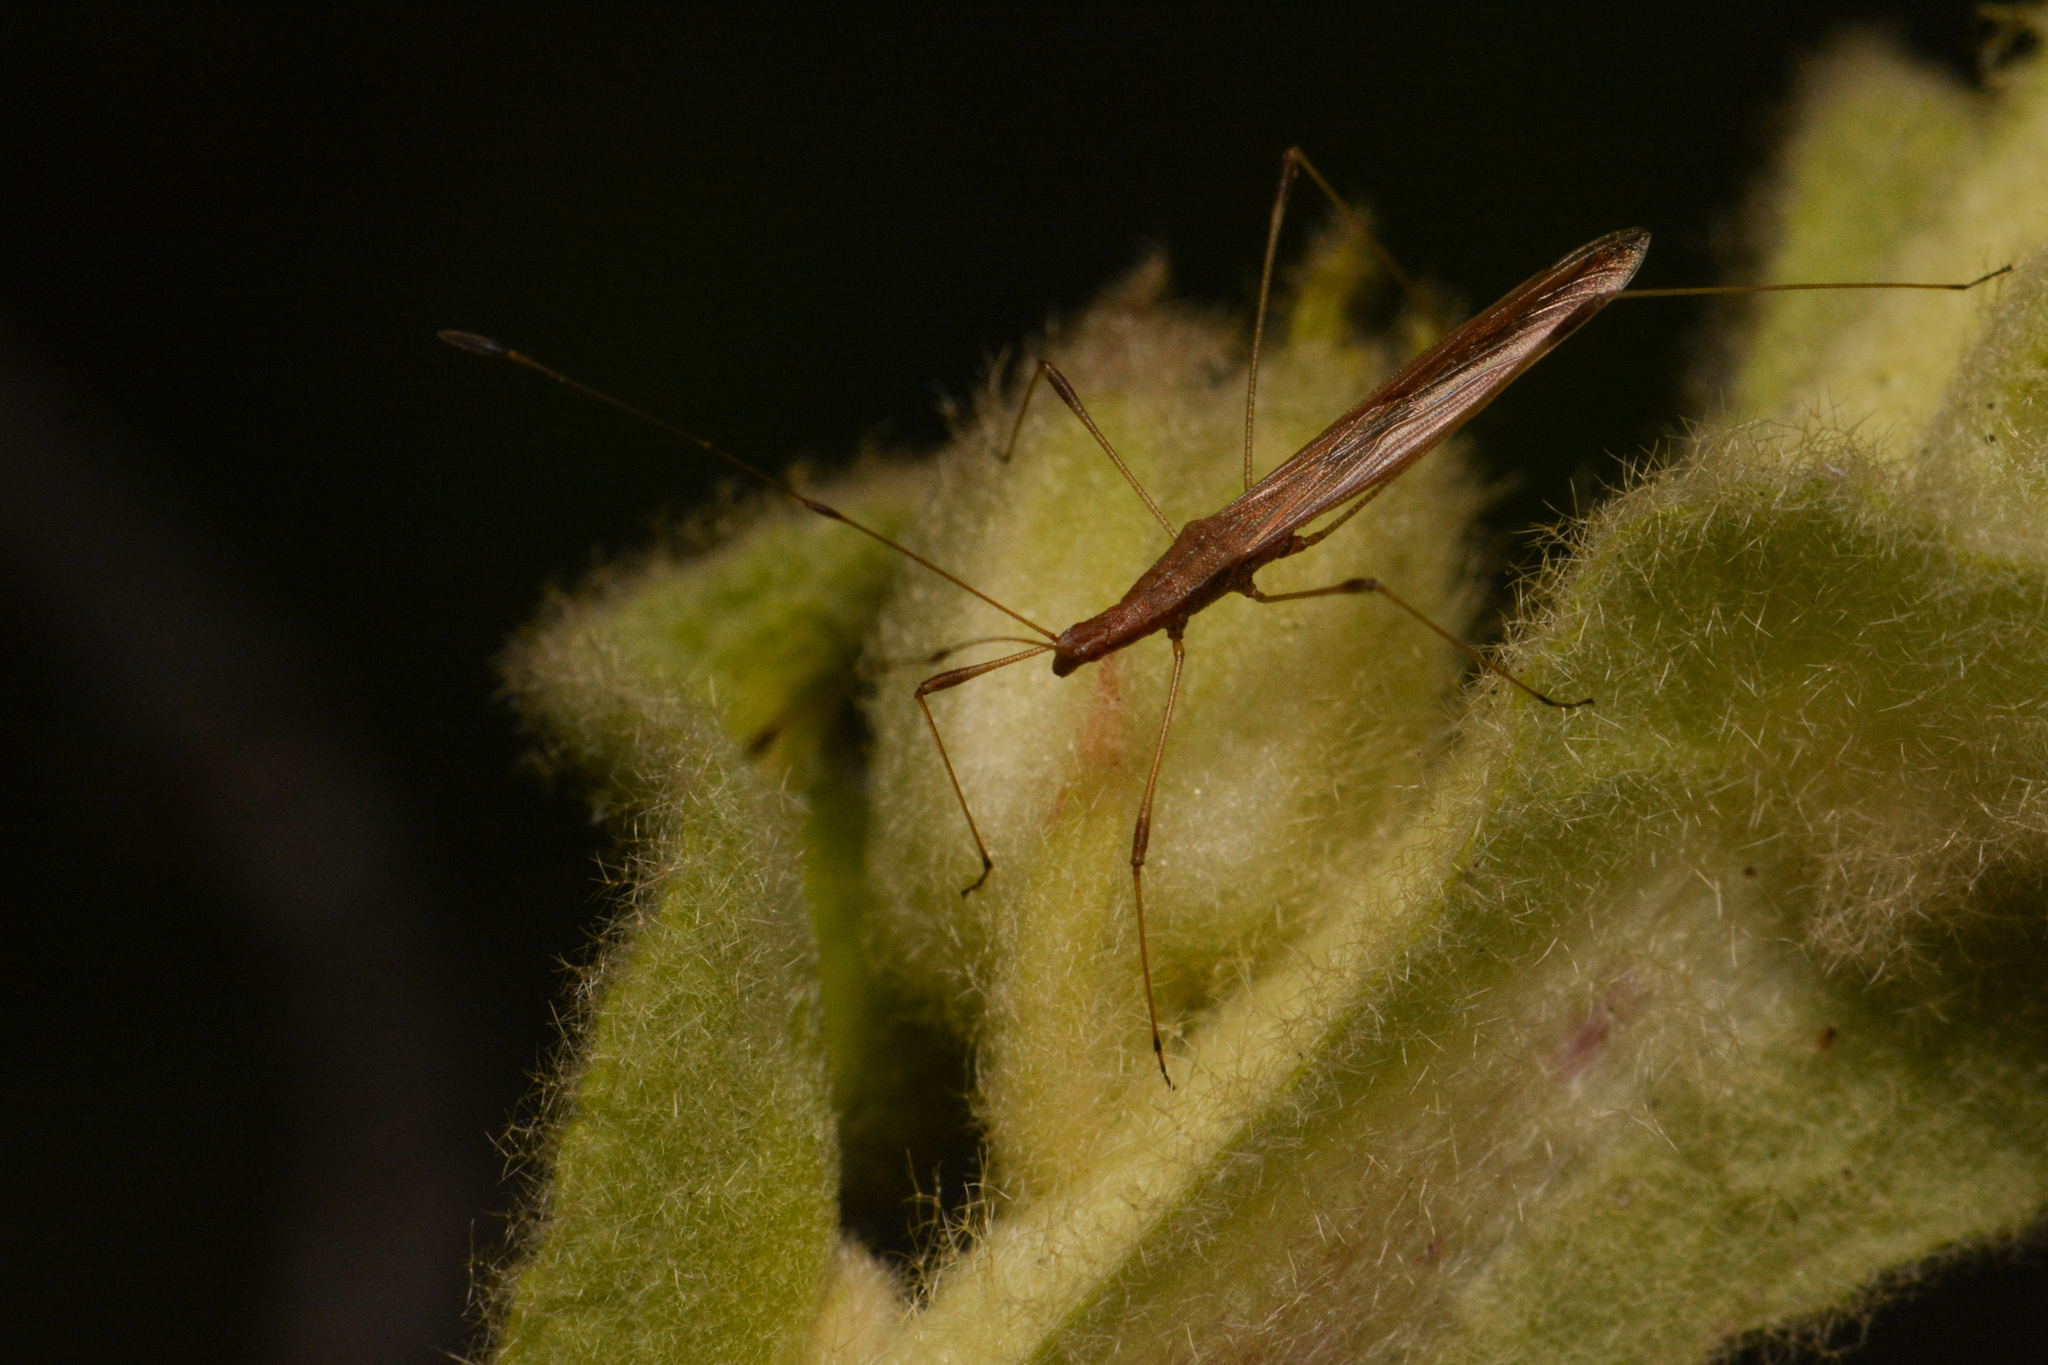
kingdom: Animalia
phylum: Arthropoda
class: Insecta
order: Hemiptera
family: Berytidae
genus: Neoneides
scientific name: Neoneides muticus
